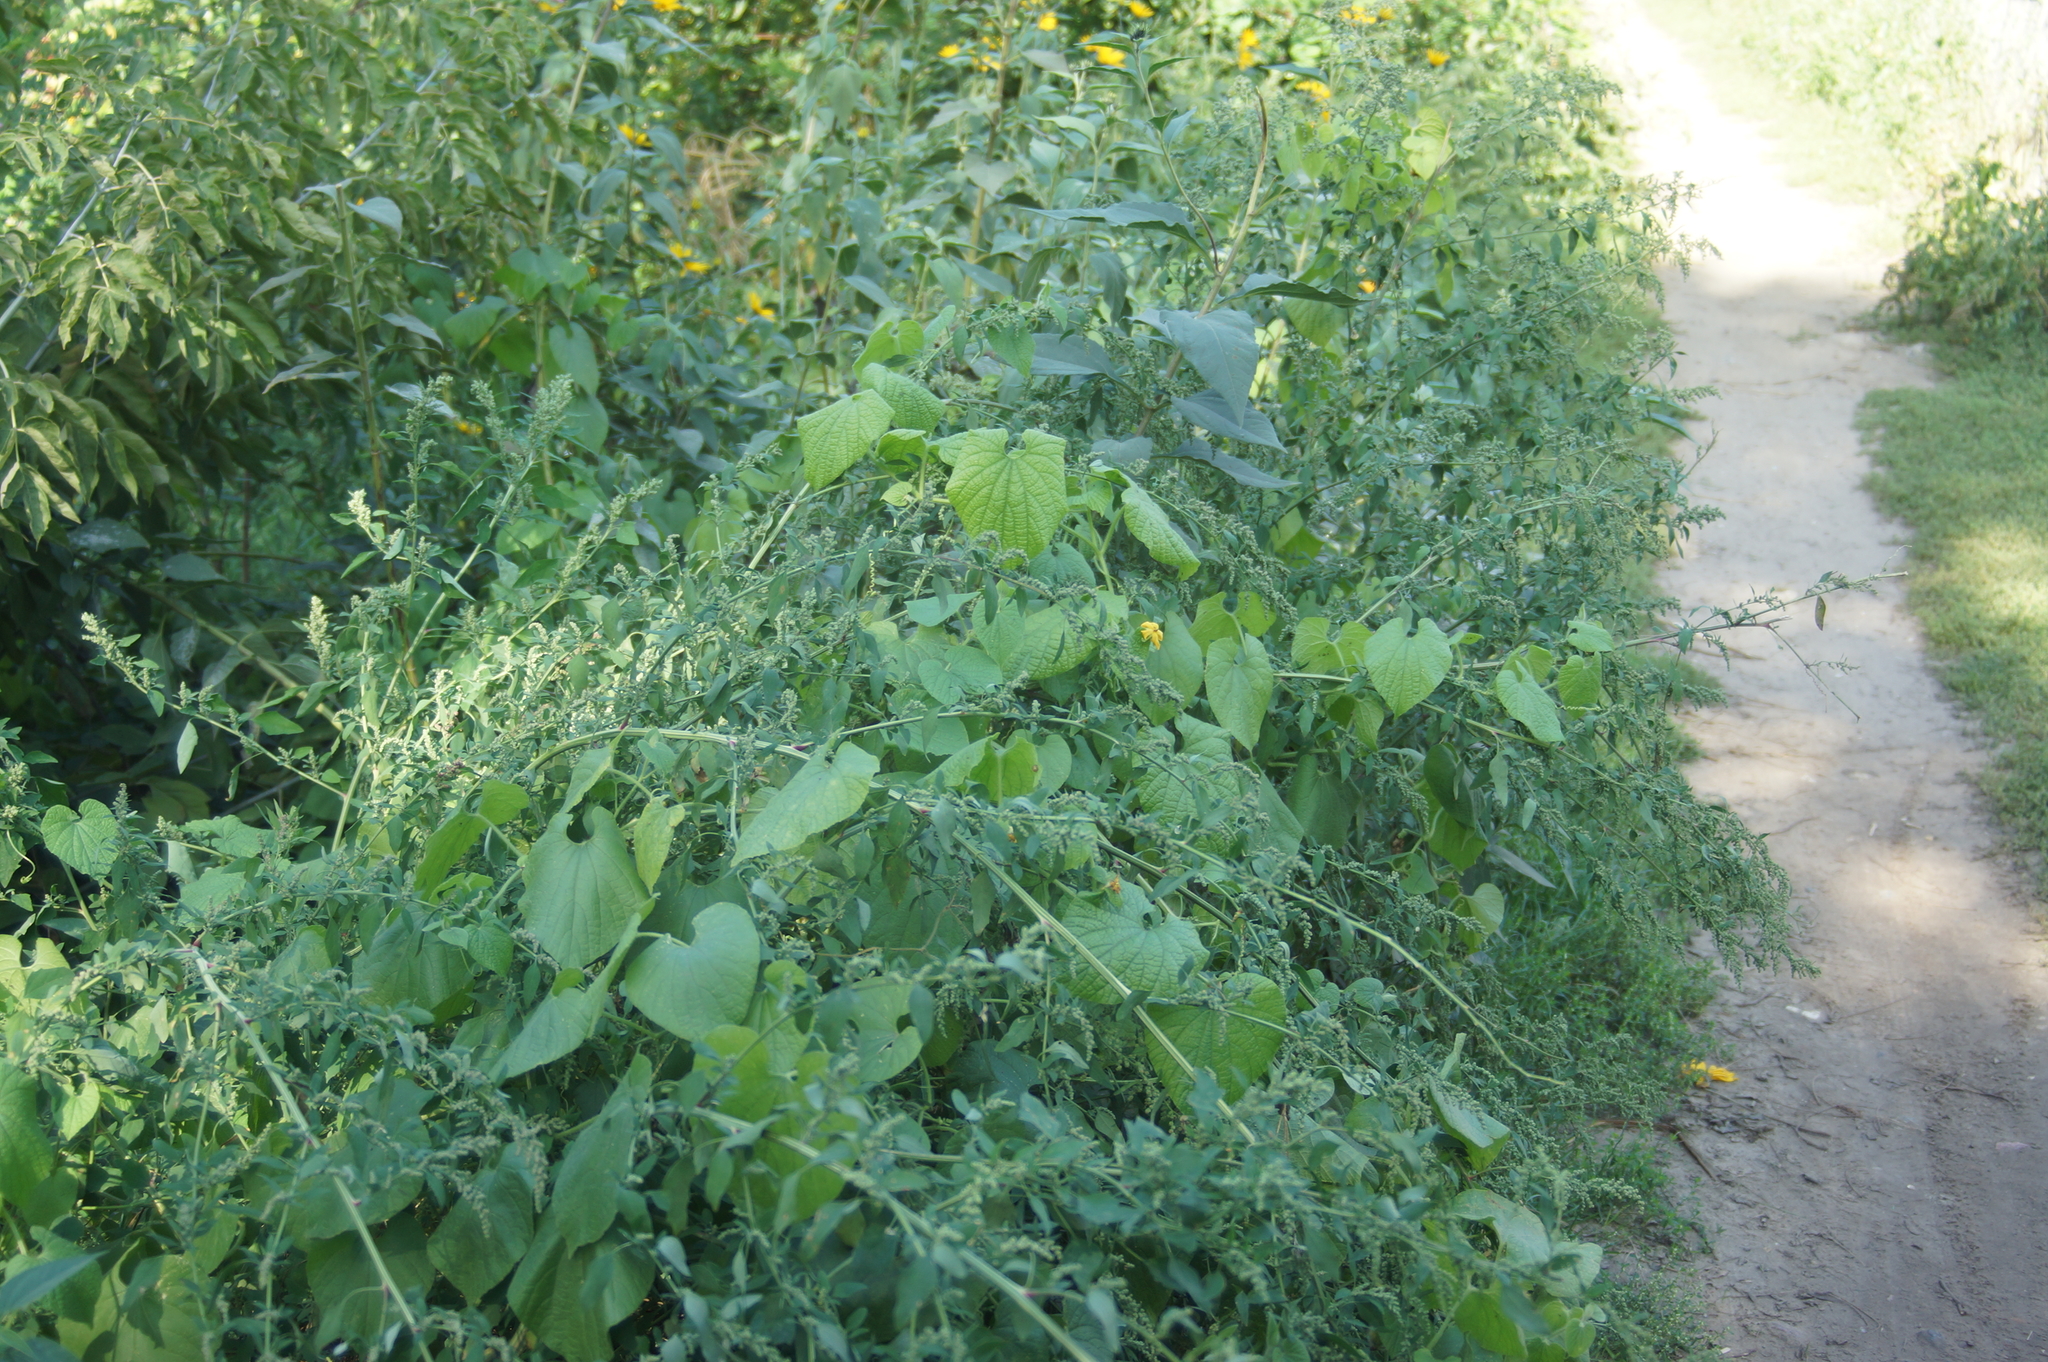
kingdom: Plantae
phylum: Tracheophyta
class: Magnoliopsida
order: Cucurbitales
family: Cucurbitaceae
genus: Thladiantha
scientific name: Thladiantha dubia
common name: Manchu tubergourd
